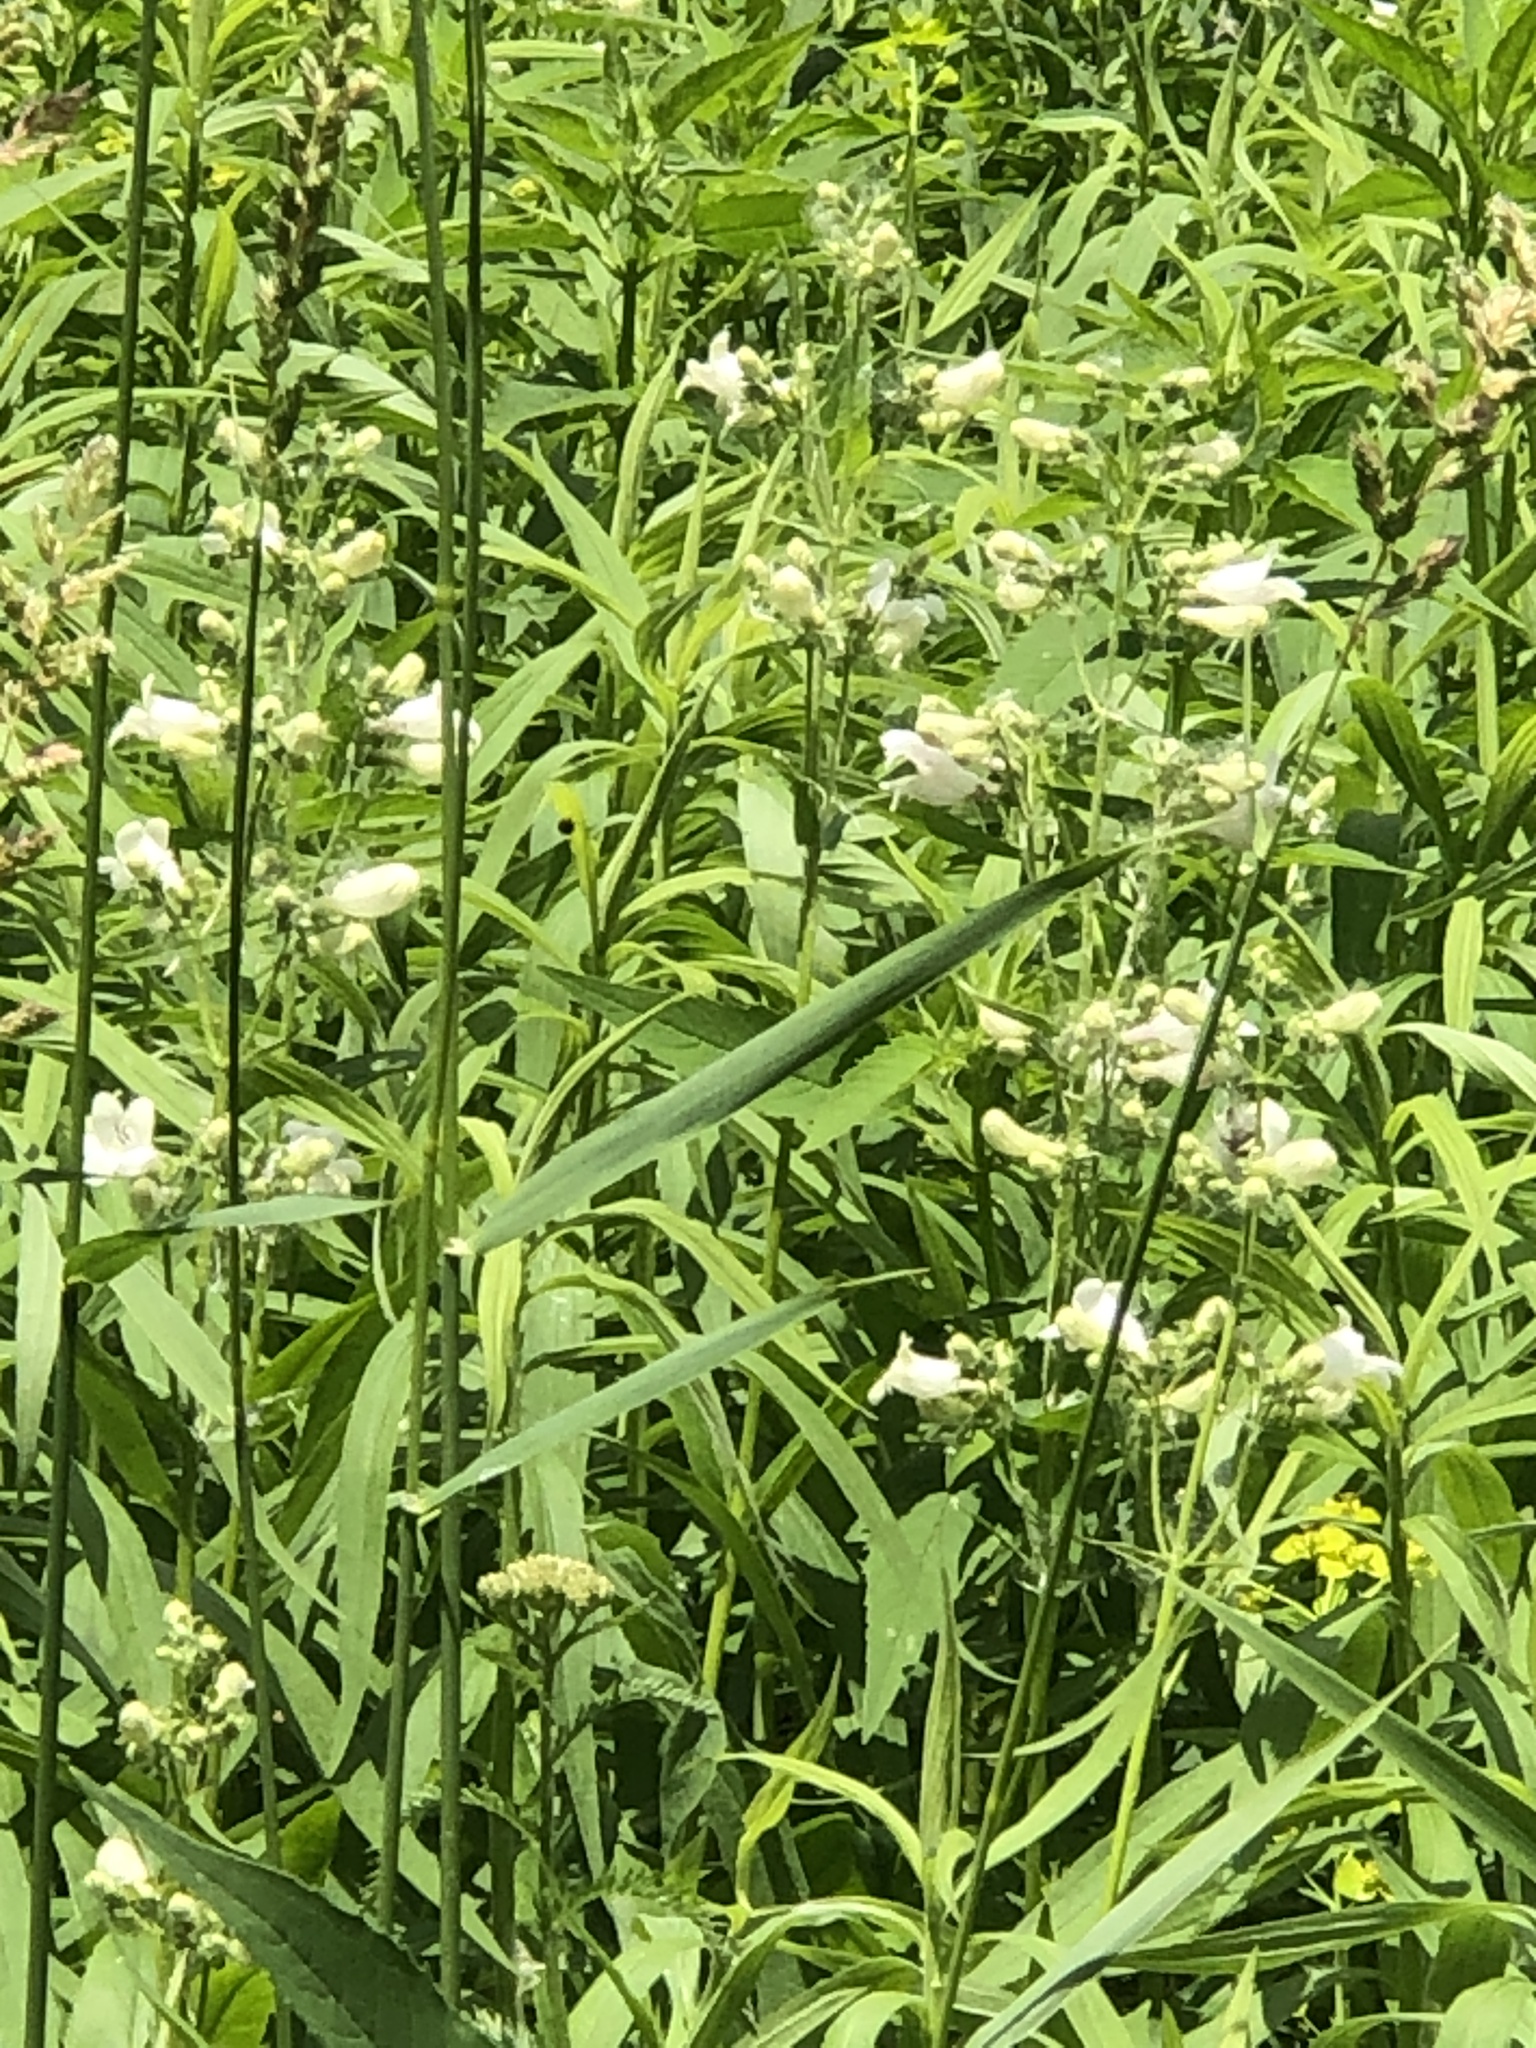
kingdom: Plantae
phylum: Tracheophyta
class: Magnoliopsida
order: Lamiales
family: Plantaginaceae
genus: Penstemon
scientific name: Penstemon digitalis
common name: Foxglove beardtongue
